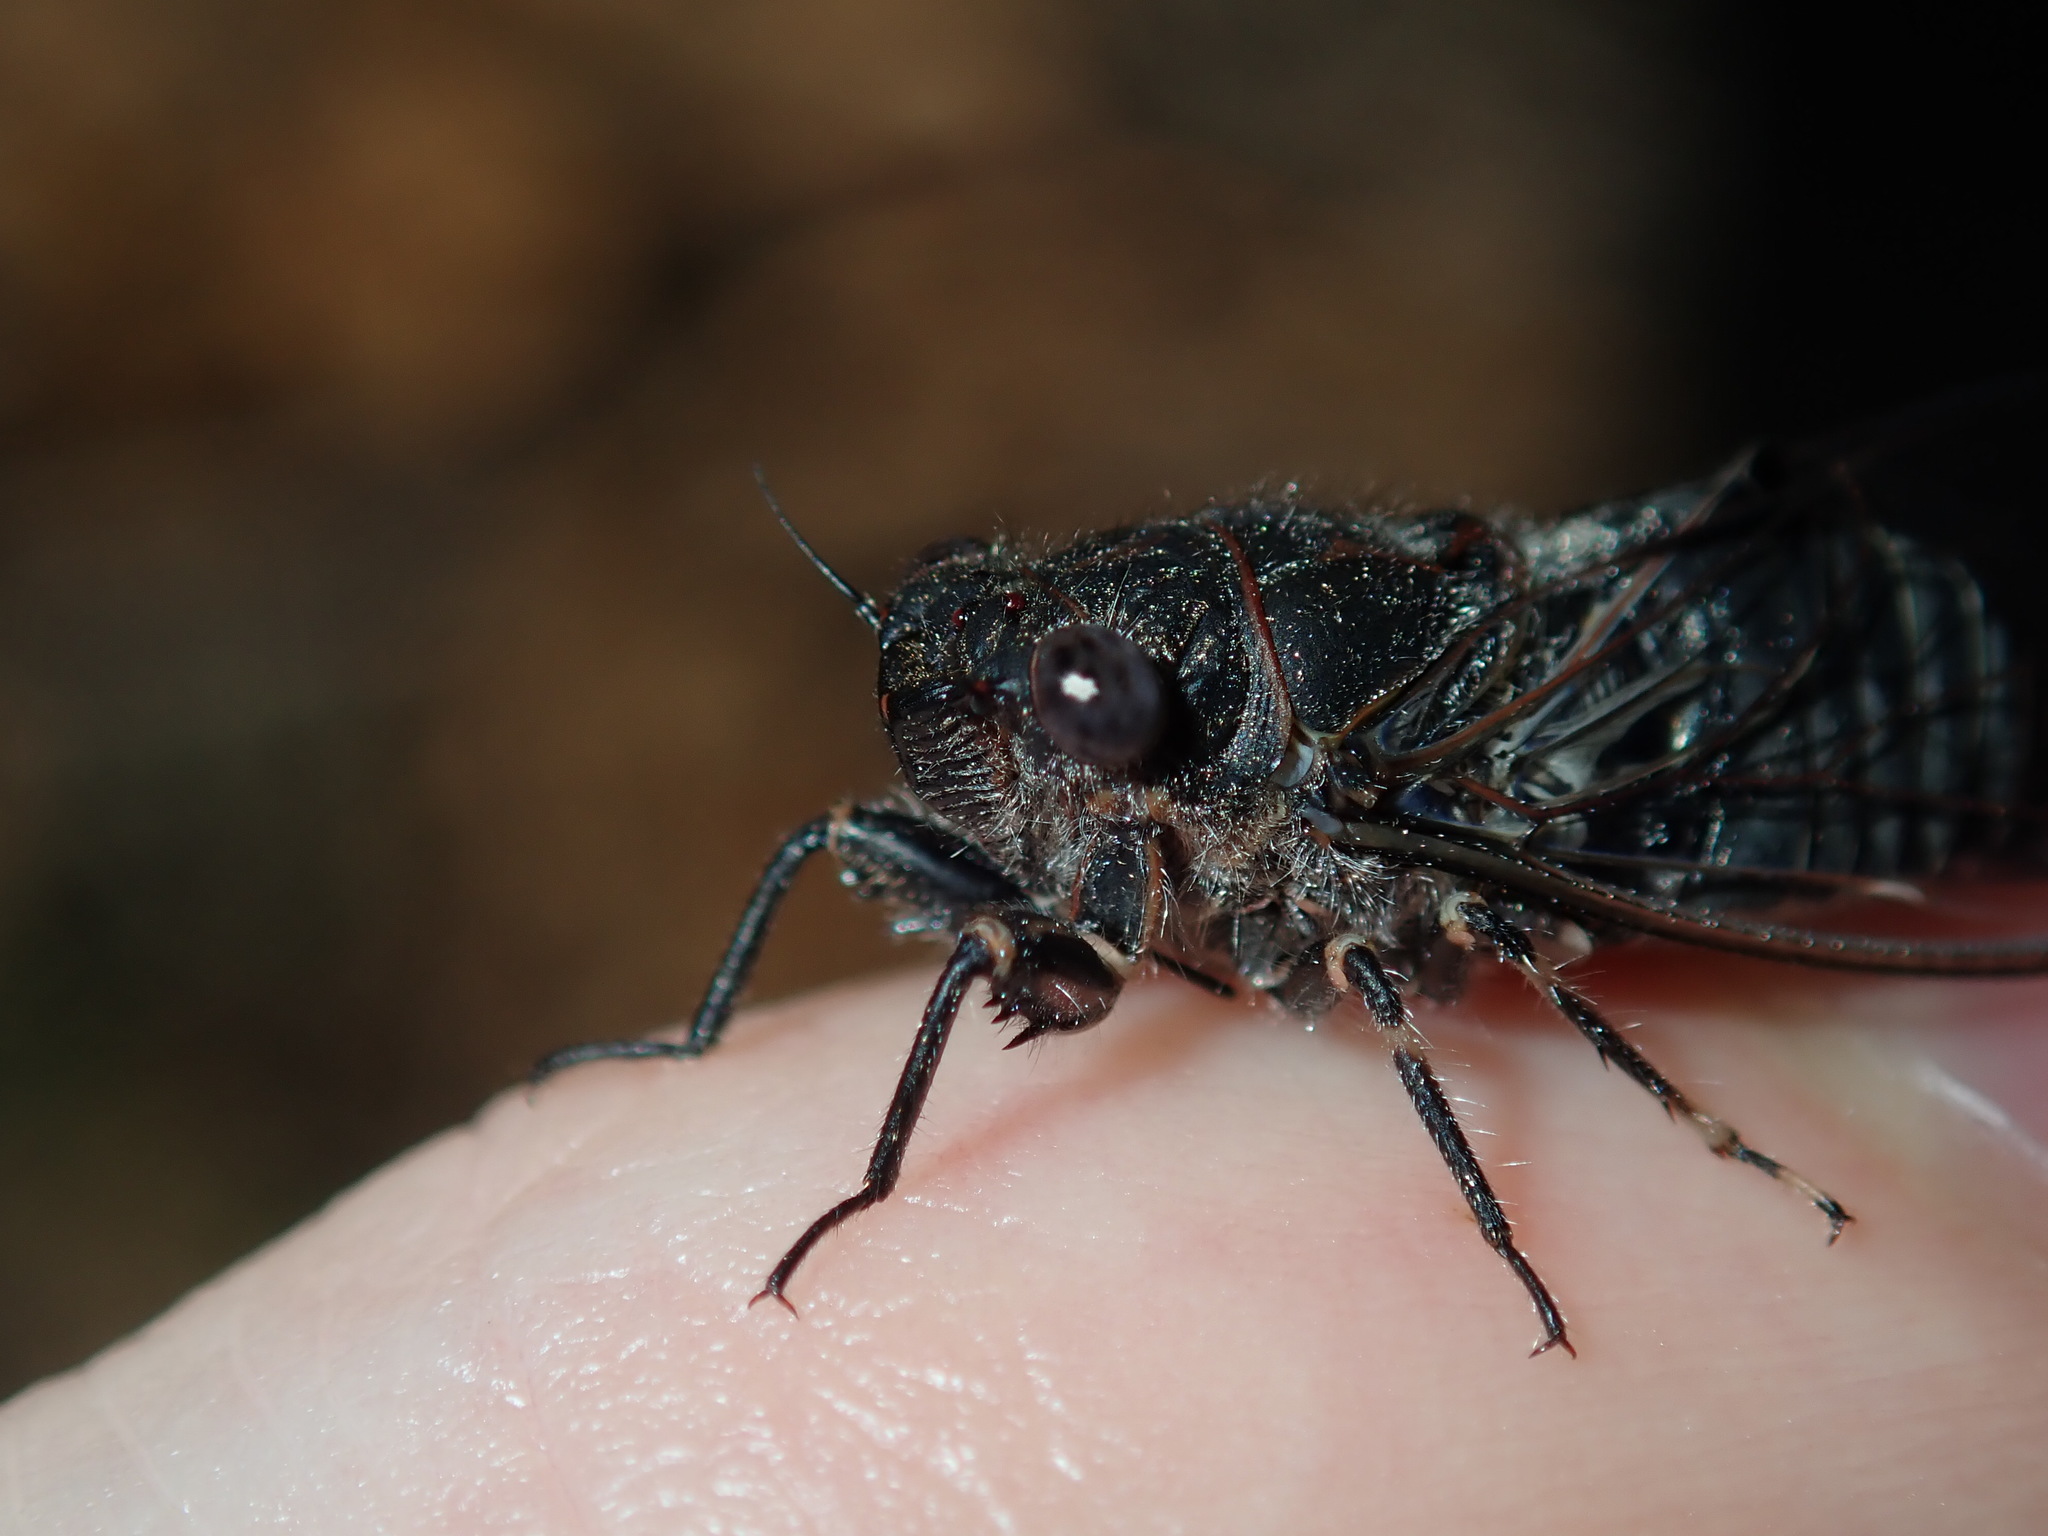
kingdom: Animalia
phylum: Arthropoda
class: Insecta
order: Hemiptera
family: Cicadidae
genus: Atrapsalta
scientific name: Atrapsalta corticina
